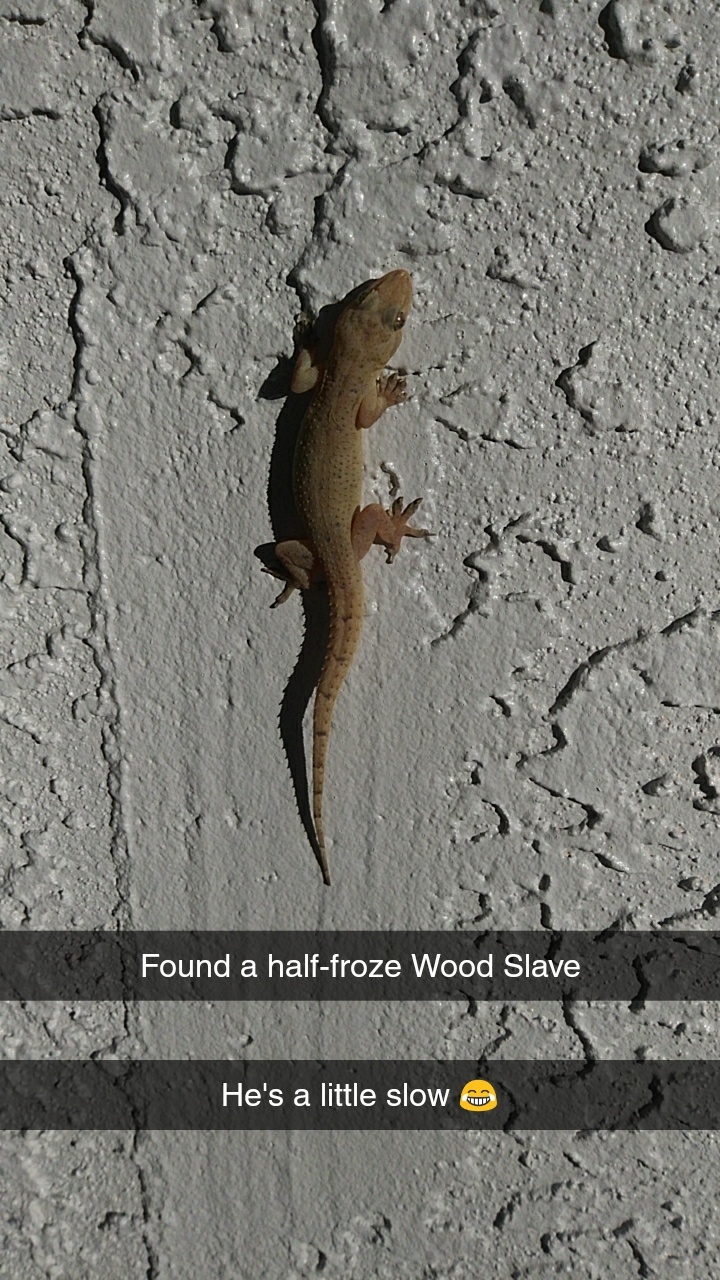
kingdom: Animalia
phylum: Chordata
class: Squamata
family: Gekkonidae
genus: Hemidactylus
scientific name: Hemidactylus mabouia
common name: House gecko
